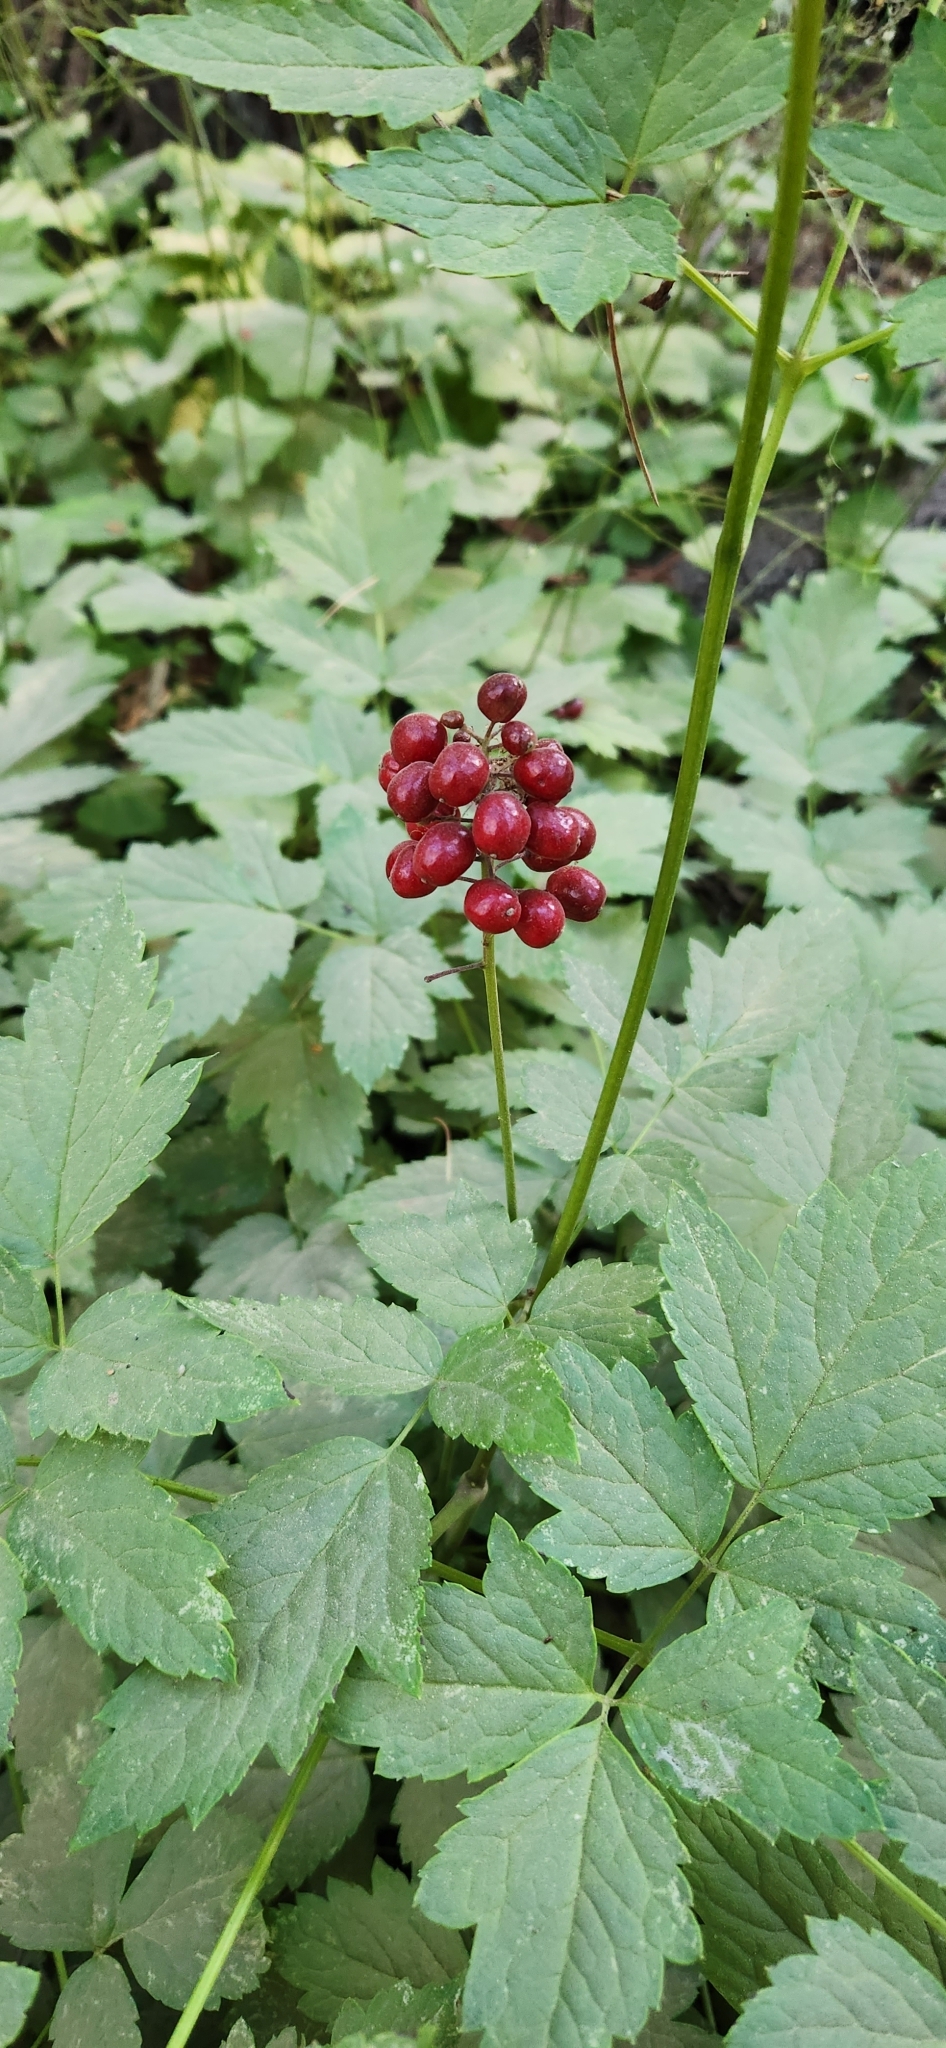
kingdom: Plantae
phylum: Tracheophyta
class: Magnoliopsida
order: Ranunculales
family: Ranunculaceae
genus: Actaea
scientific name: Actaea rubra
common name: Red baneberry
